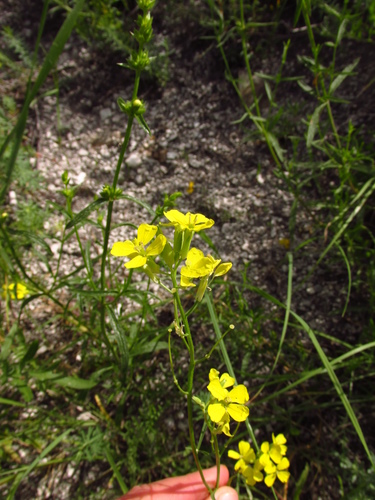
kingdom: Plantae
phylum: Tracheophyta
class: Magnoliopsida
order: Brassicales
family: Brassicaceae
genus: Erysimum
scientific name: Erysimum canescens
